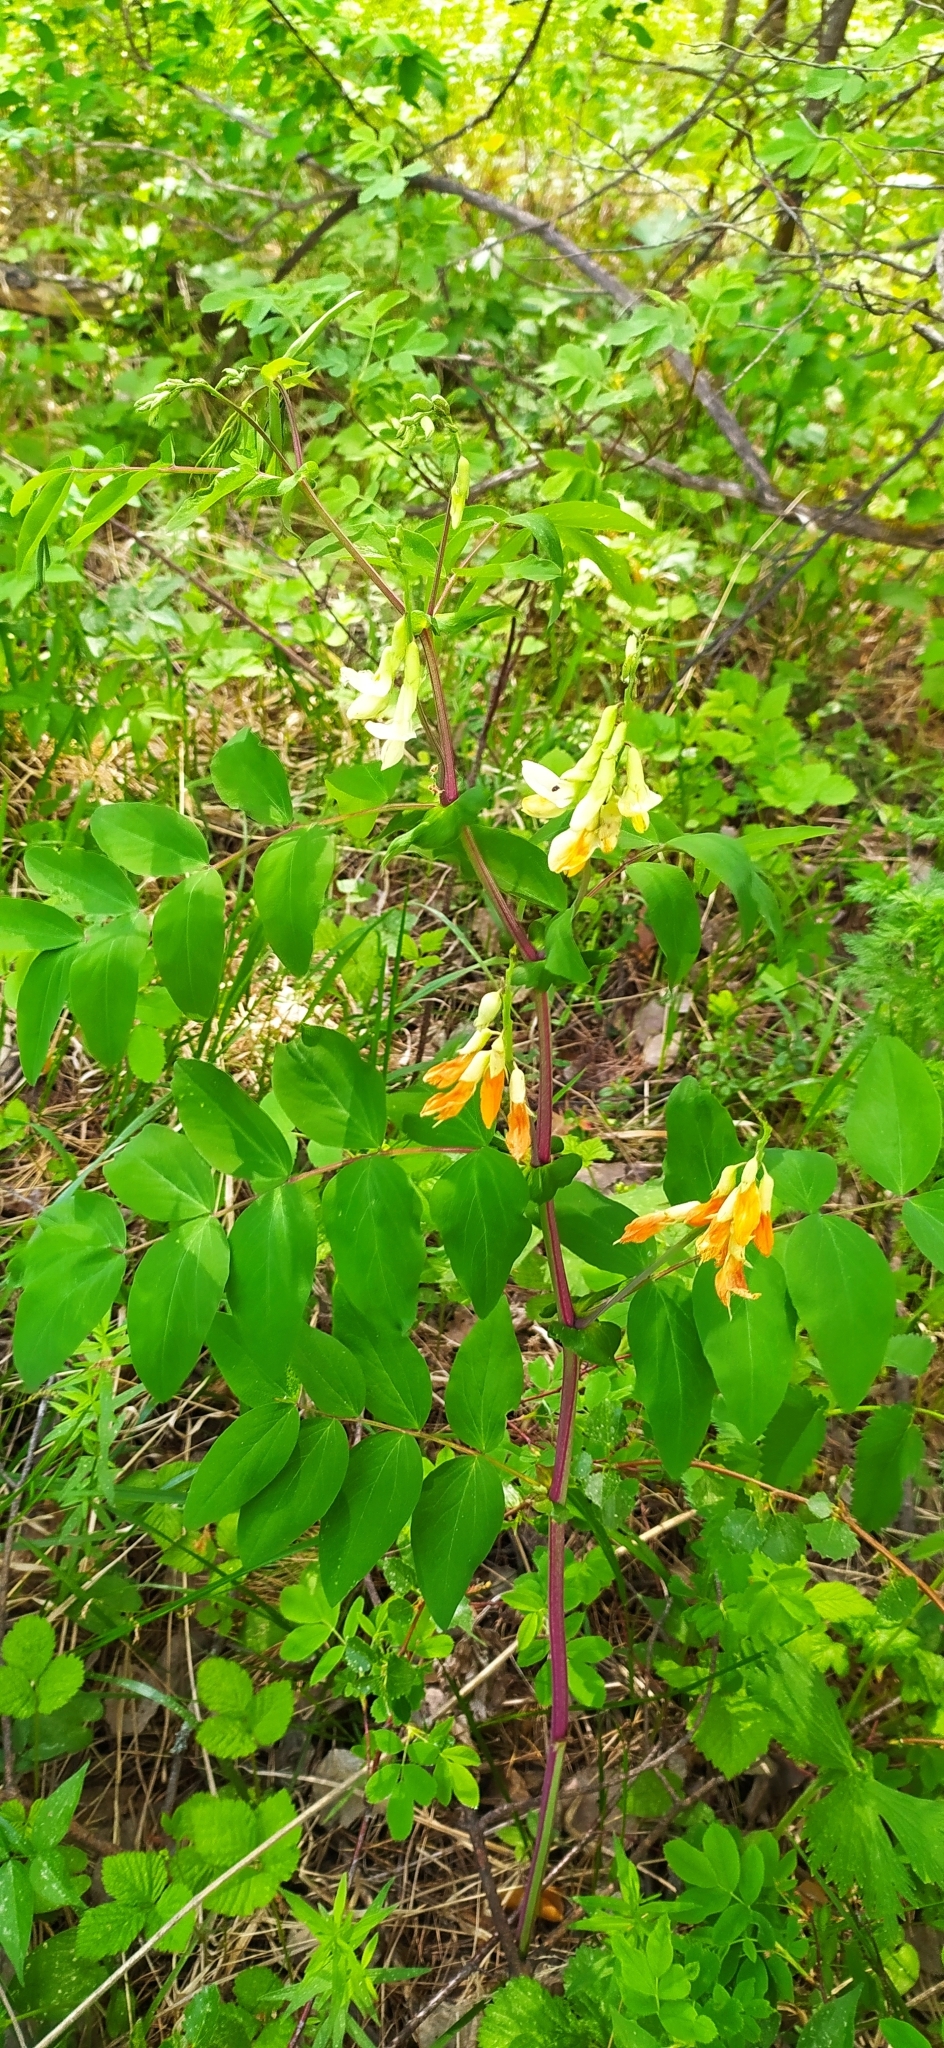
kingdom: Plantae
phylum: Tracheophyta
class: Magnoliopsida
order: Fabales
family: Fabaceae
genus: Lathyrus
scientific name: Lathyrus gmelinii
